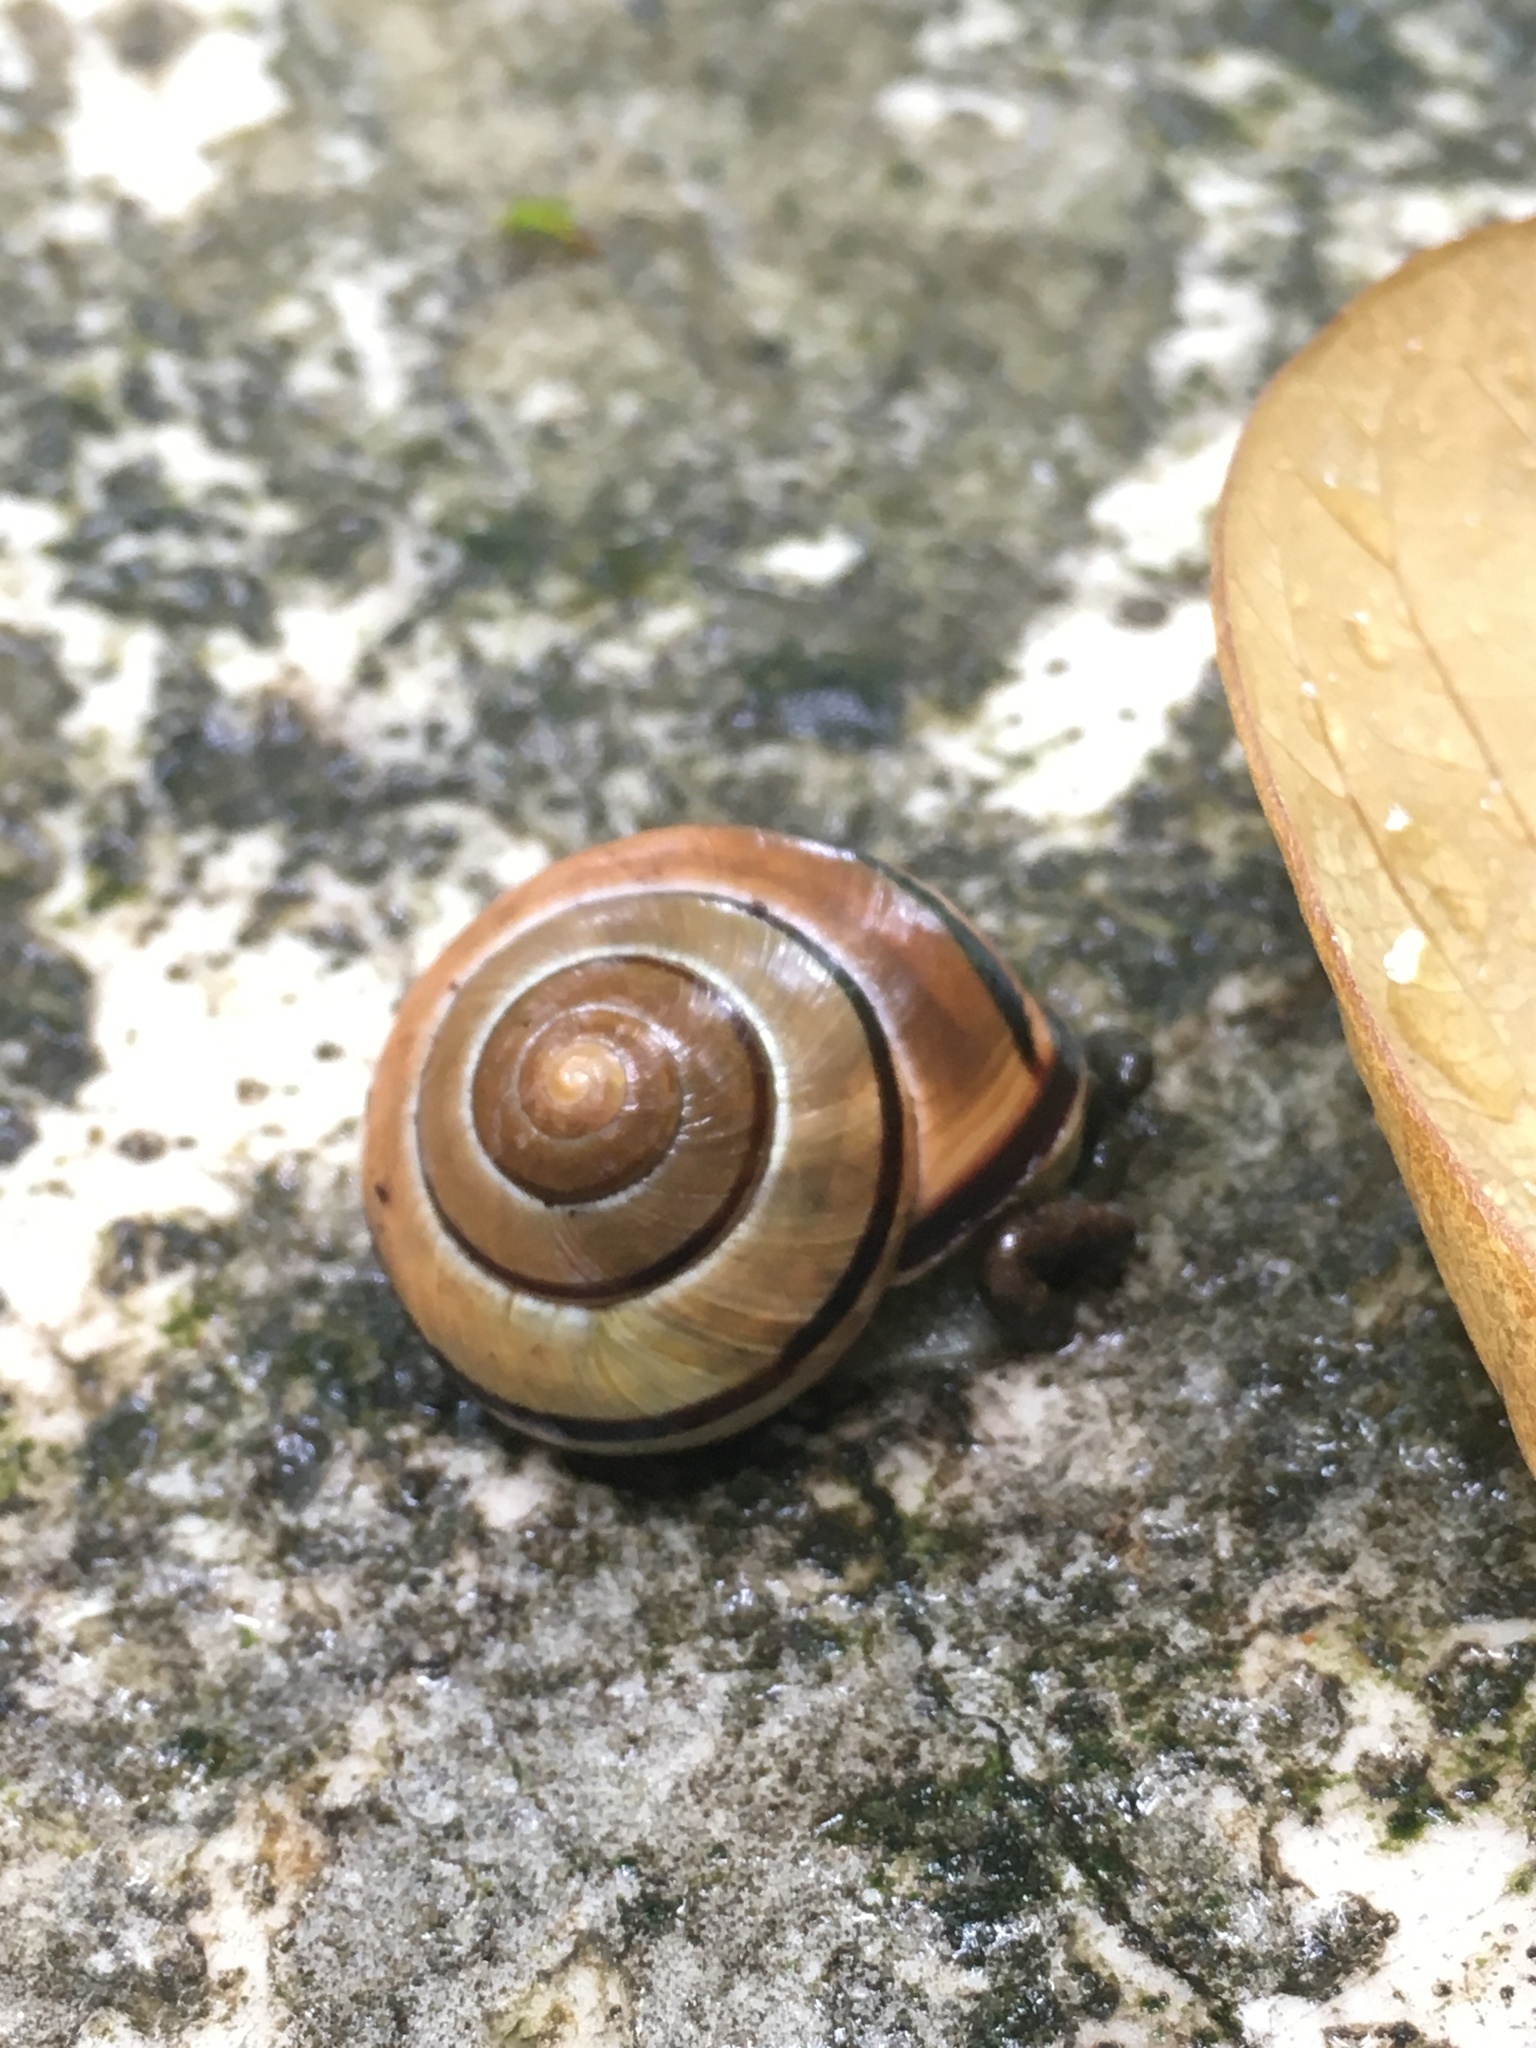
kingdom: Animalia
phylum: Mollusca
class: Gastropoda
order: Stylommatophora
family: Helicidae
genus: Cepaea
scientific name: Cepaea nemoralis
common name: Grovesnail
